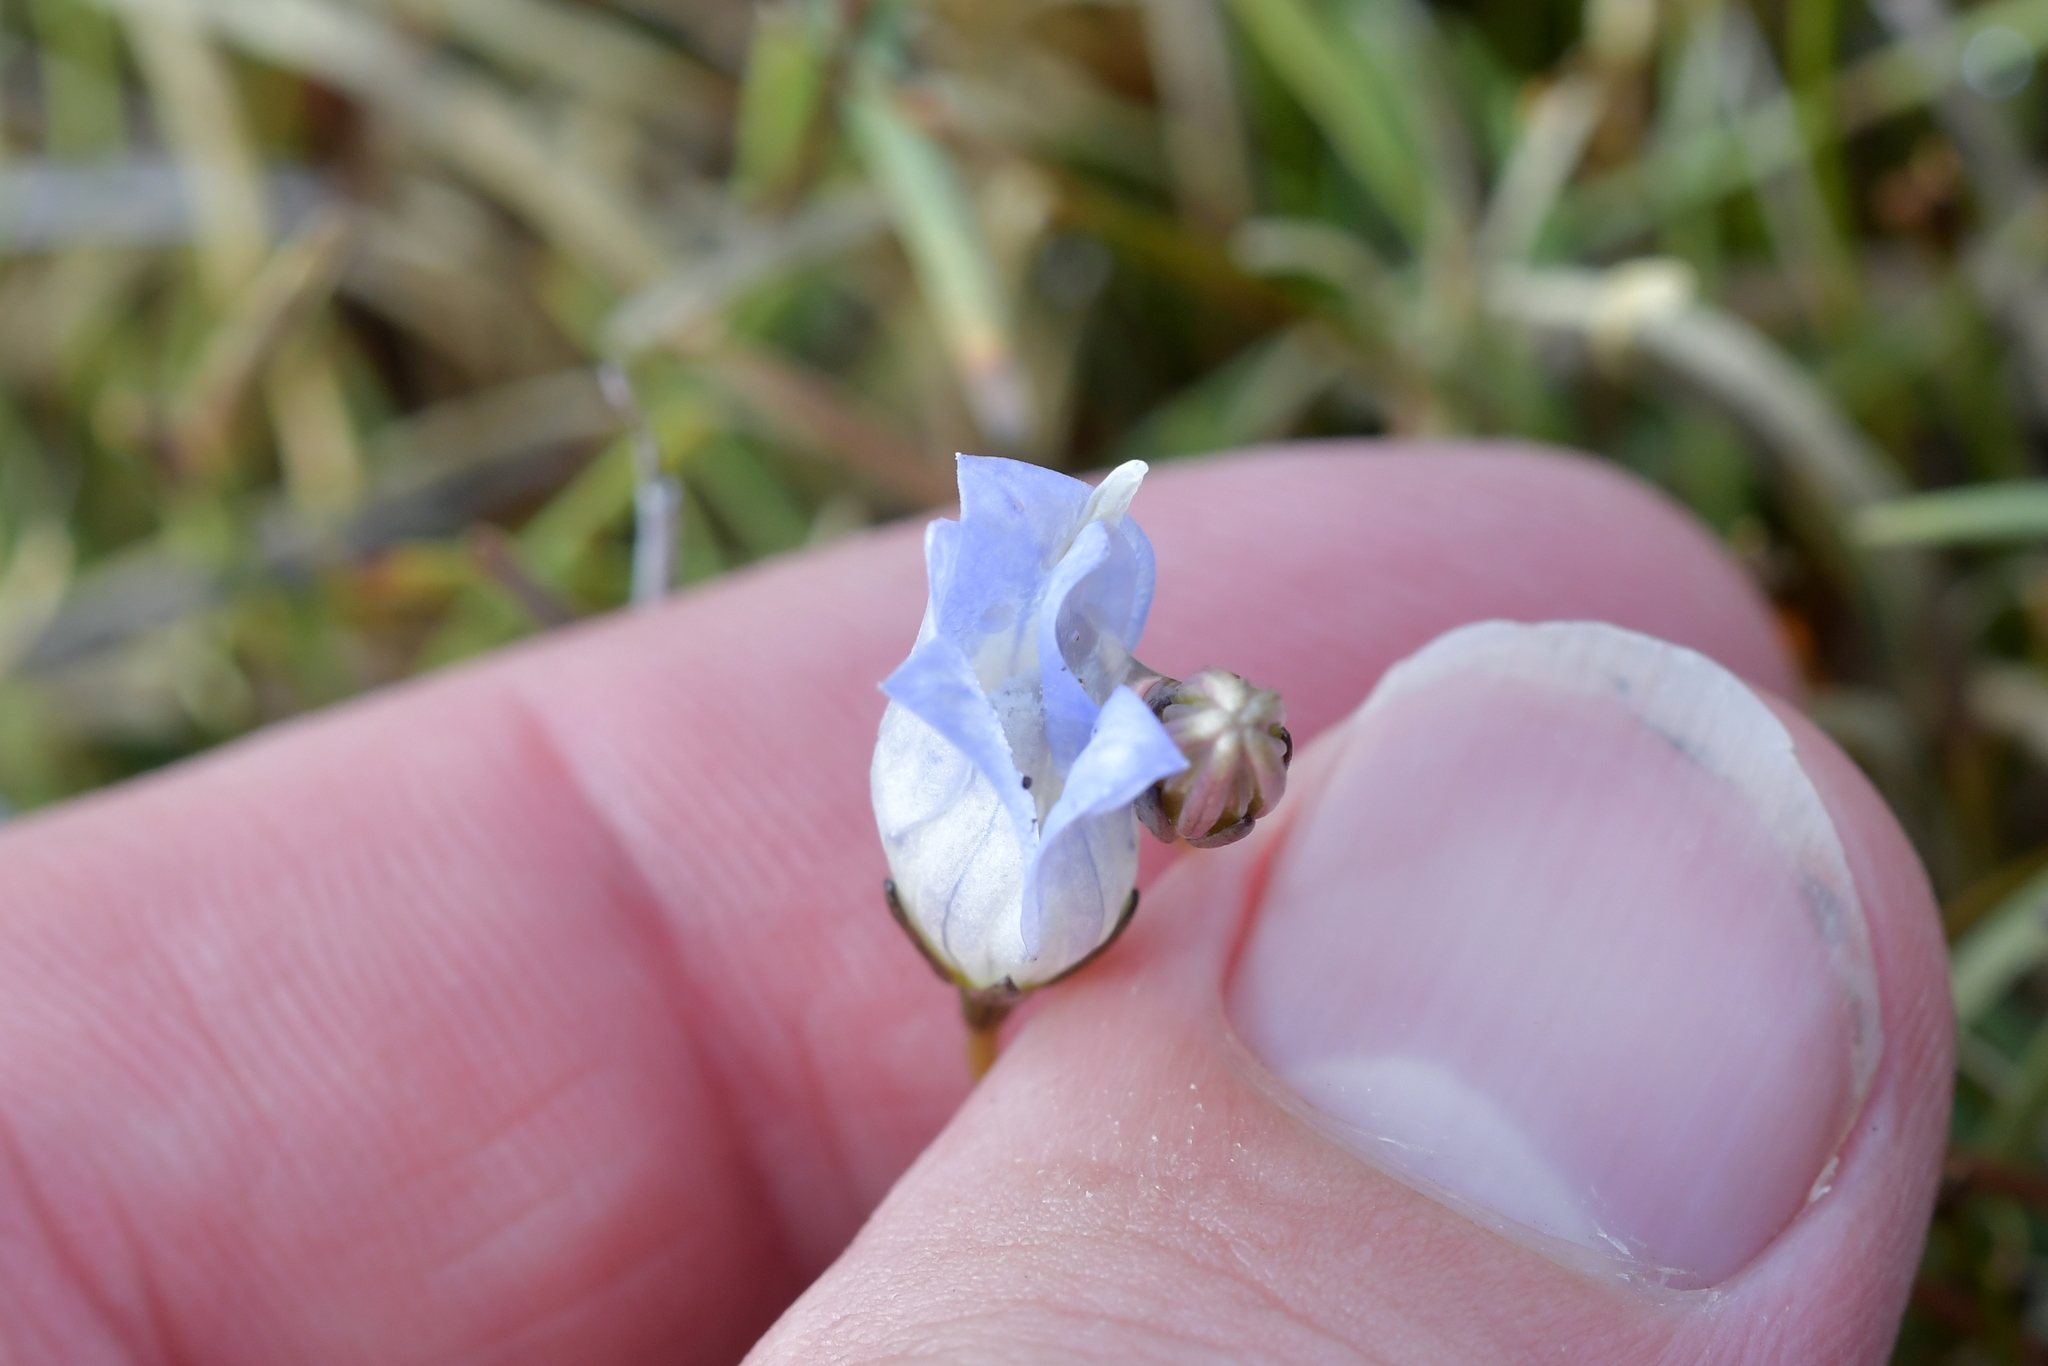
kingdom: Plantae
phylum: Tracheophyta
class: Magnoliopsida
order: Asterales
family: Campanulaceae
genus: Wahlenbergia
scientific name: Wahlenbergia pygmaea
